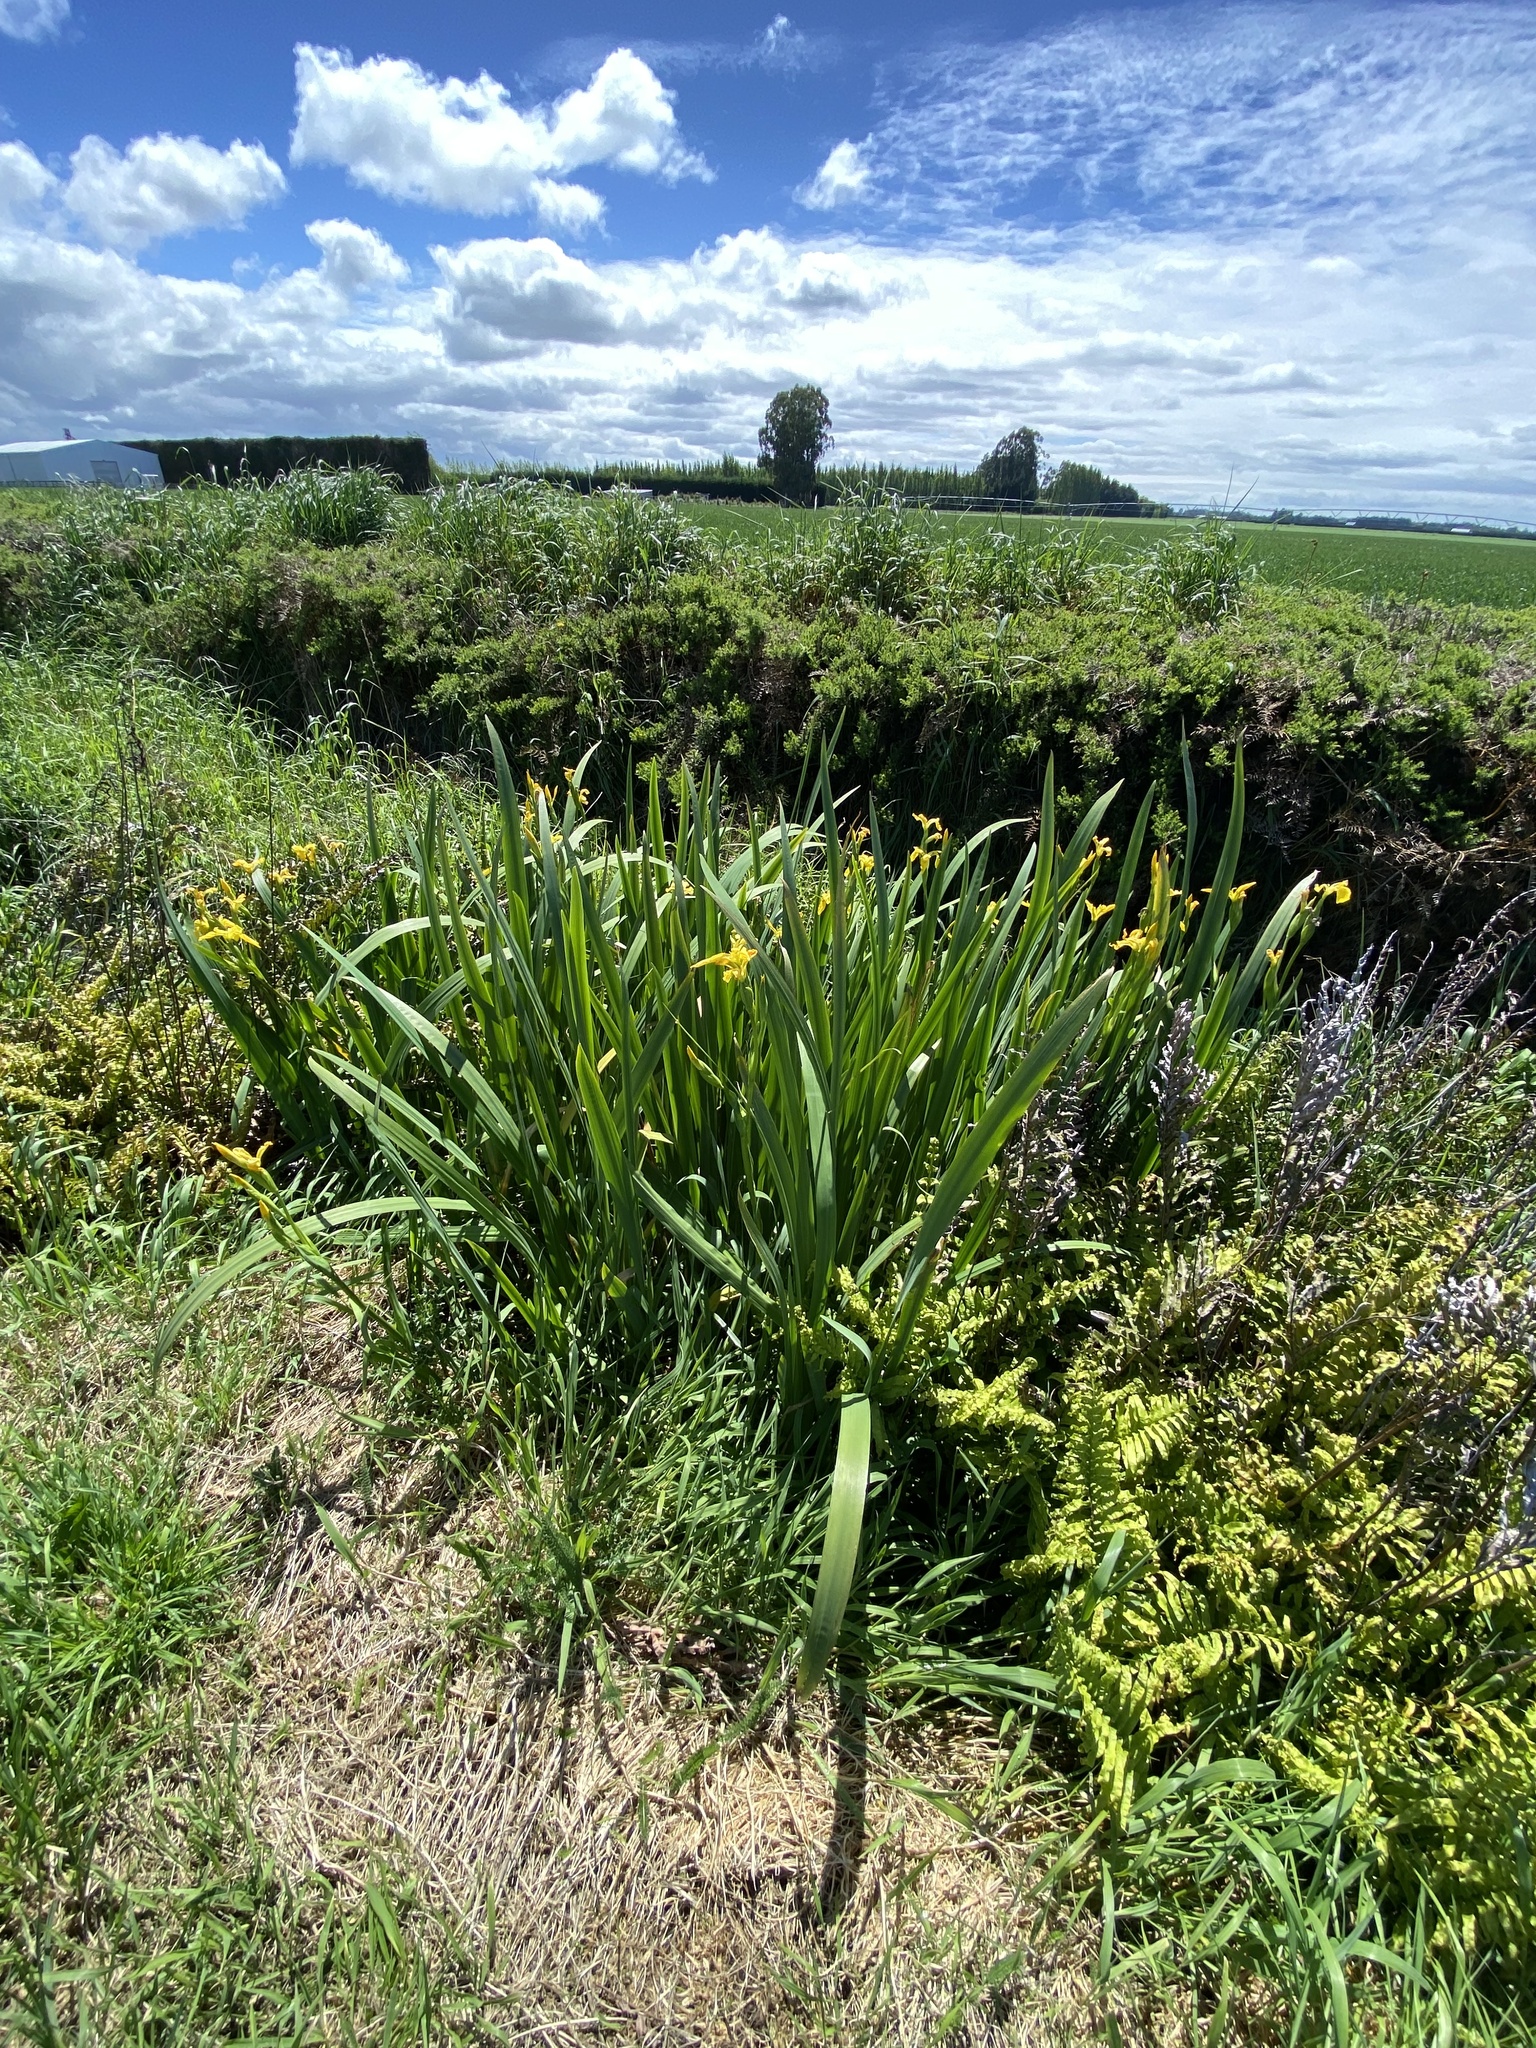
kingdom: Plantae
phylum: Tracheophyta
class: Liliopsida
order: Asparagales
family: Iridaceae
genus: Iris
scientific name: Iris pseudacorus
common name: Yellow flag
